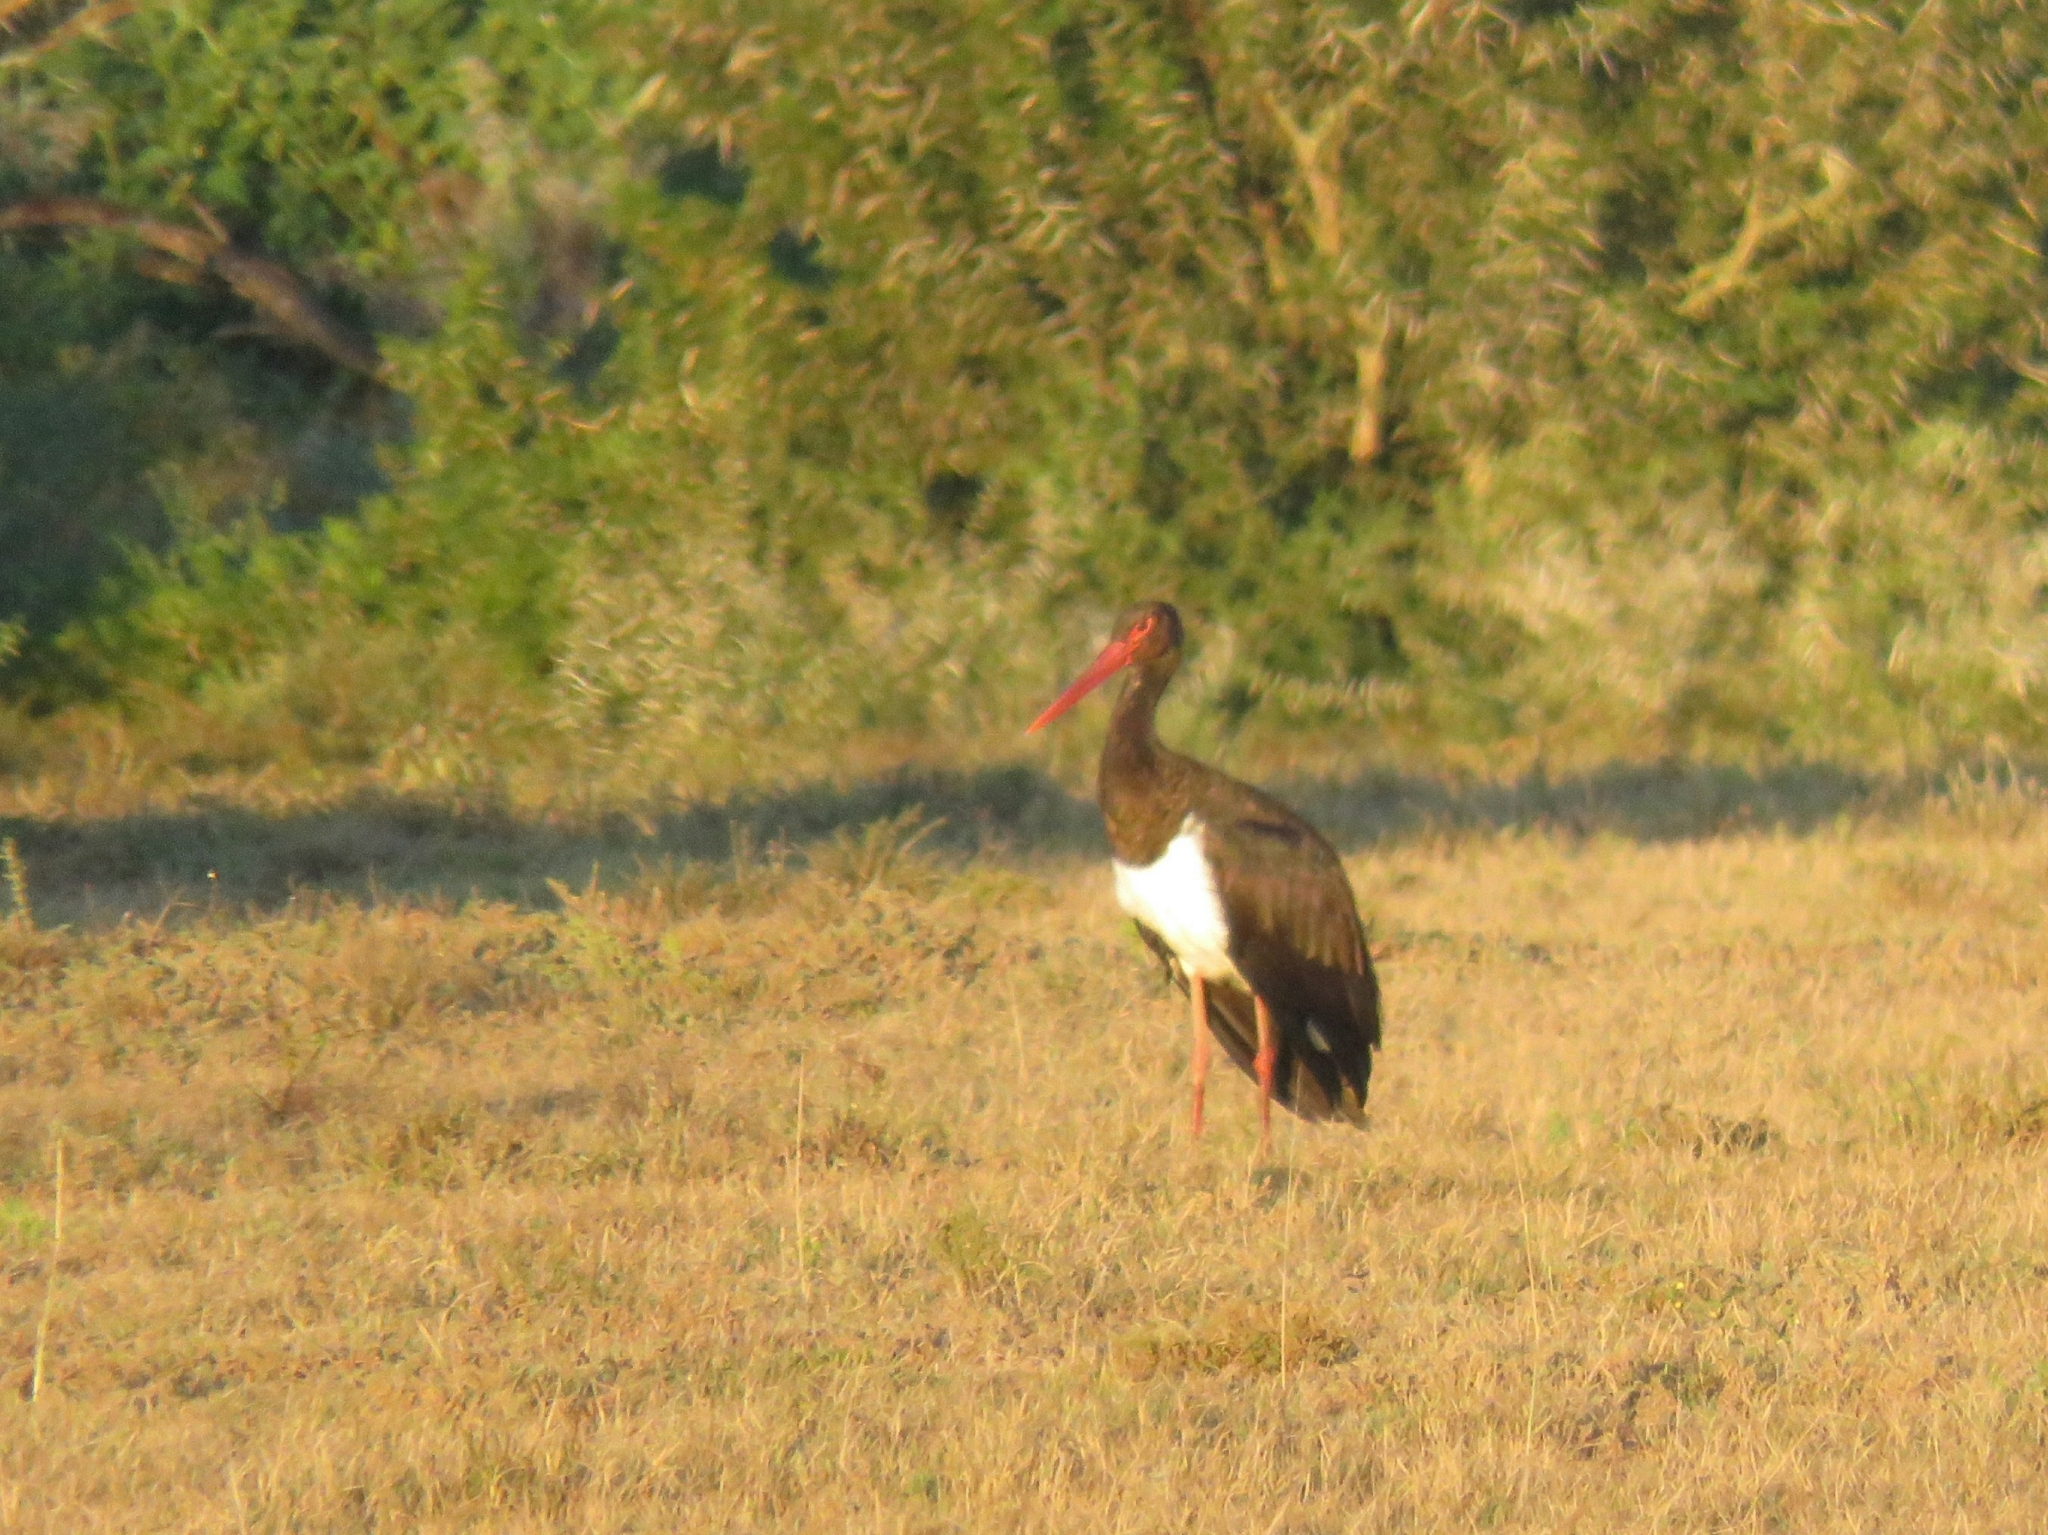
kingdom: Animalia
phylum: Chordata
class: Aves
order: Ciconiiformes
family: Ciconiidae
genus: Ciconia
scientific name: Ciconia nigra
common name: Black stork
